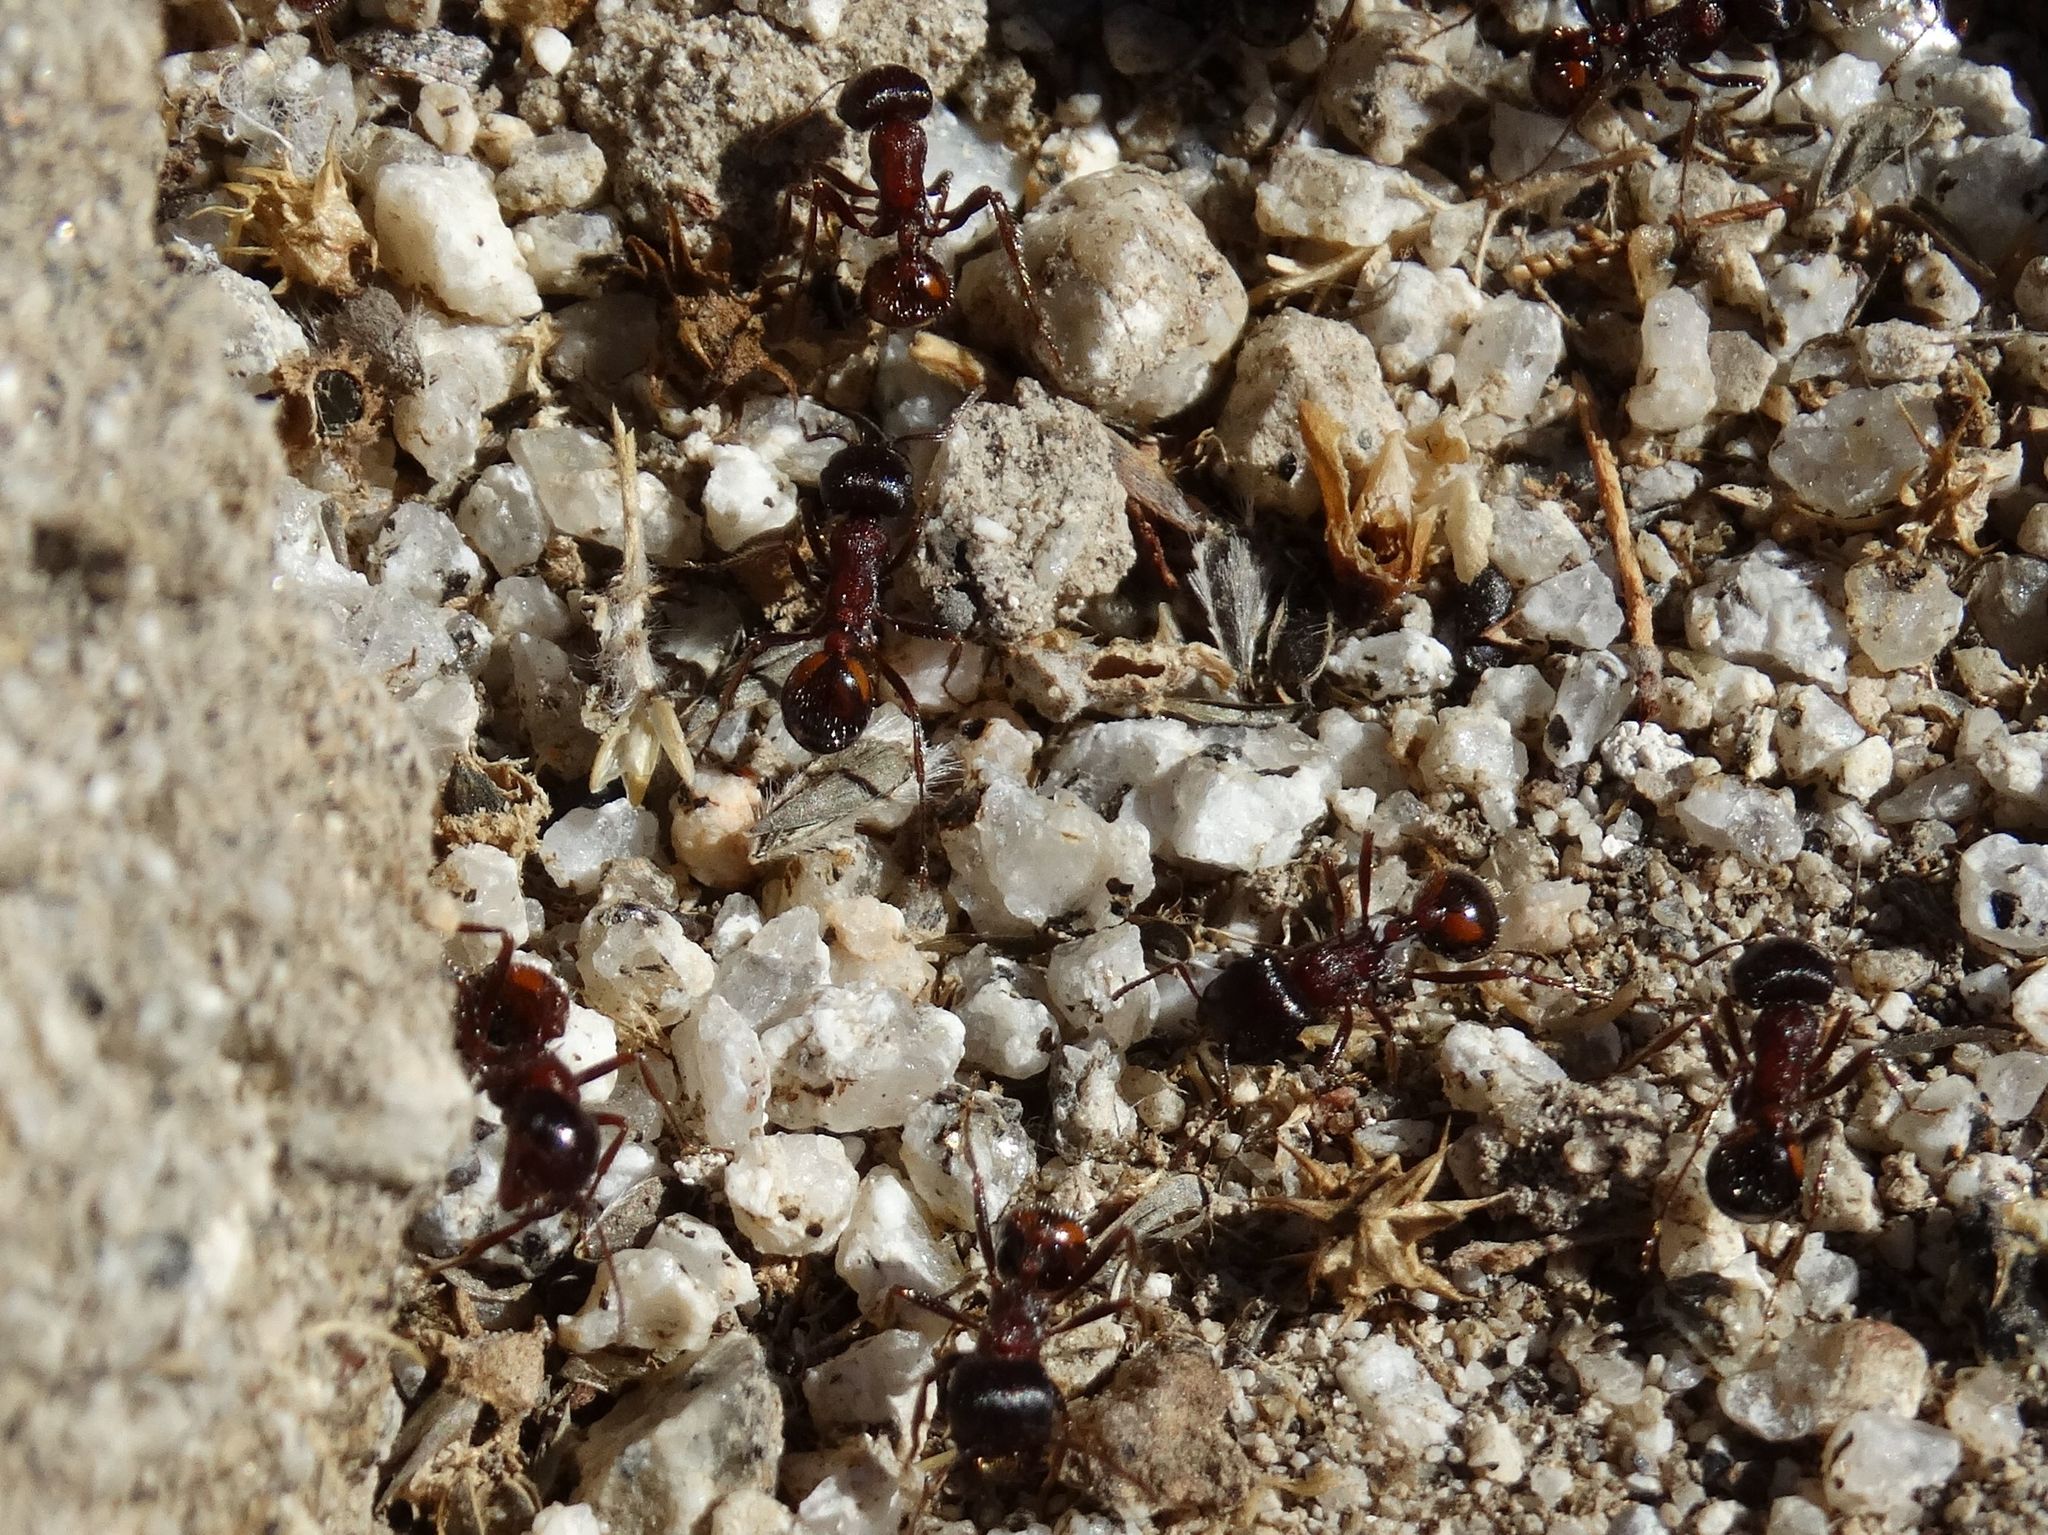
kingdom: Animalia
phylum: Arthropoda
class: Insecta
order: Hymenoptera
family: Formicidae
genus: Pogonomyrmex
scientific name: Pogonomyrmex rugosus
